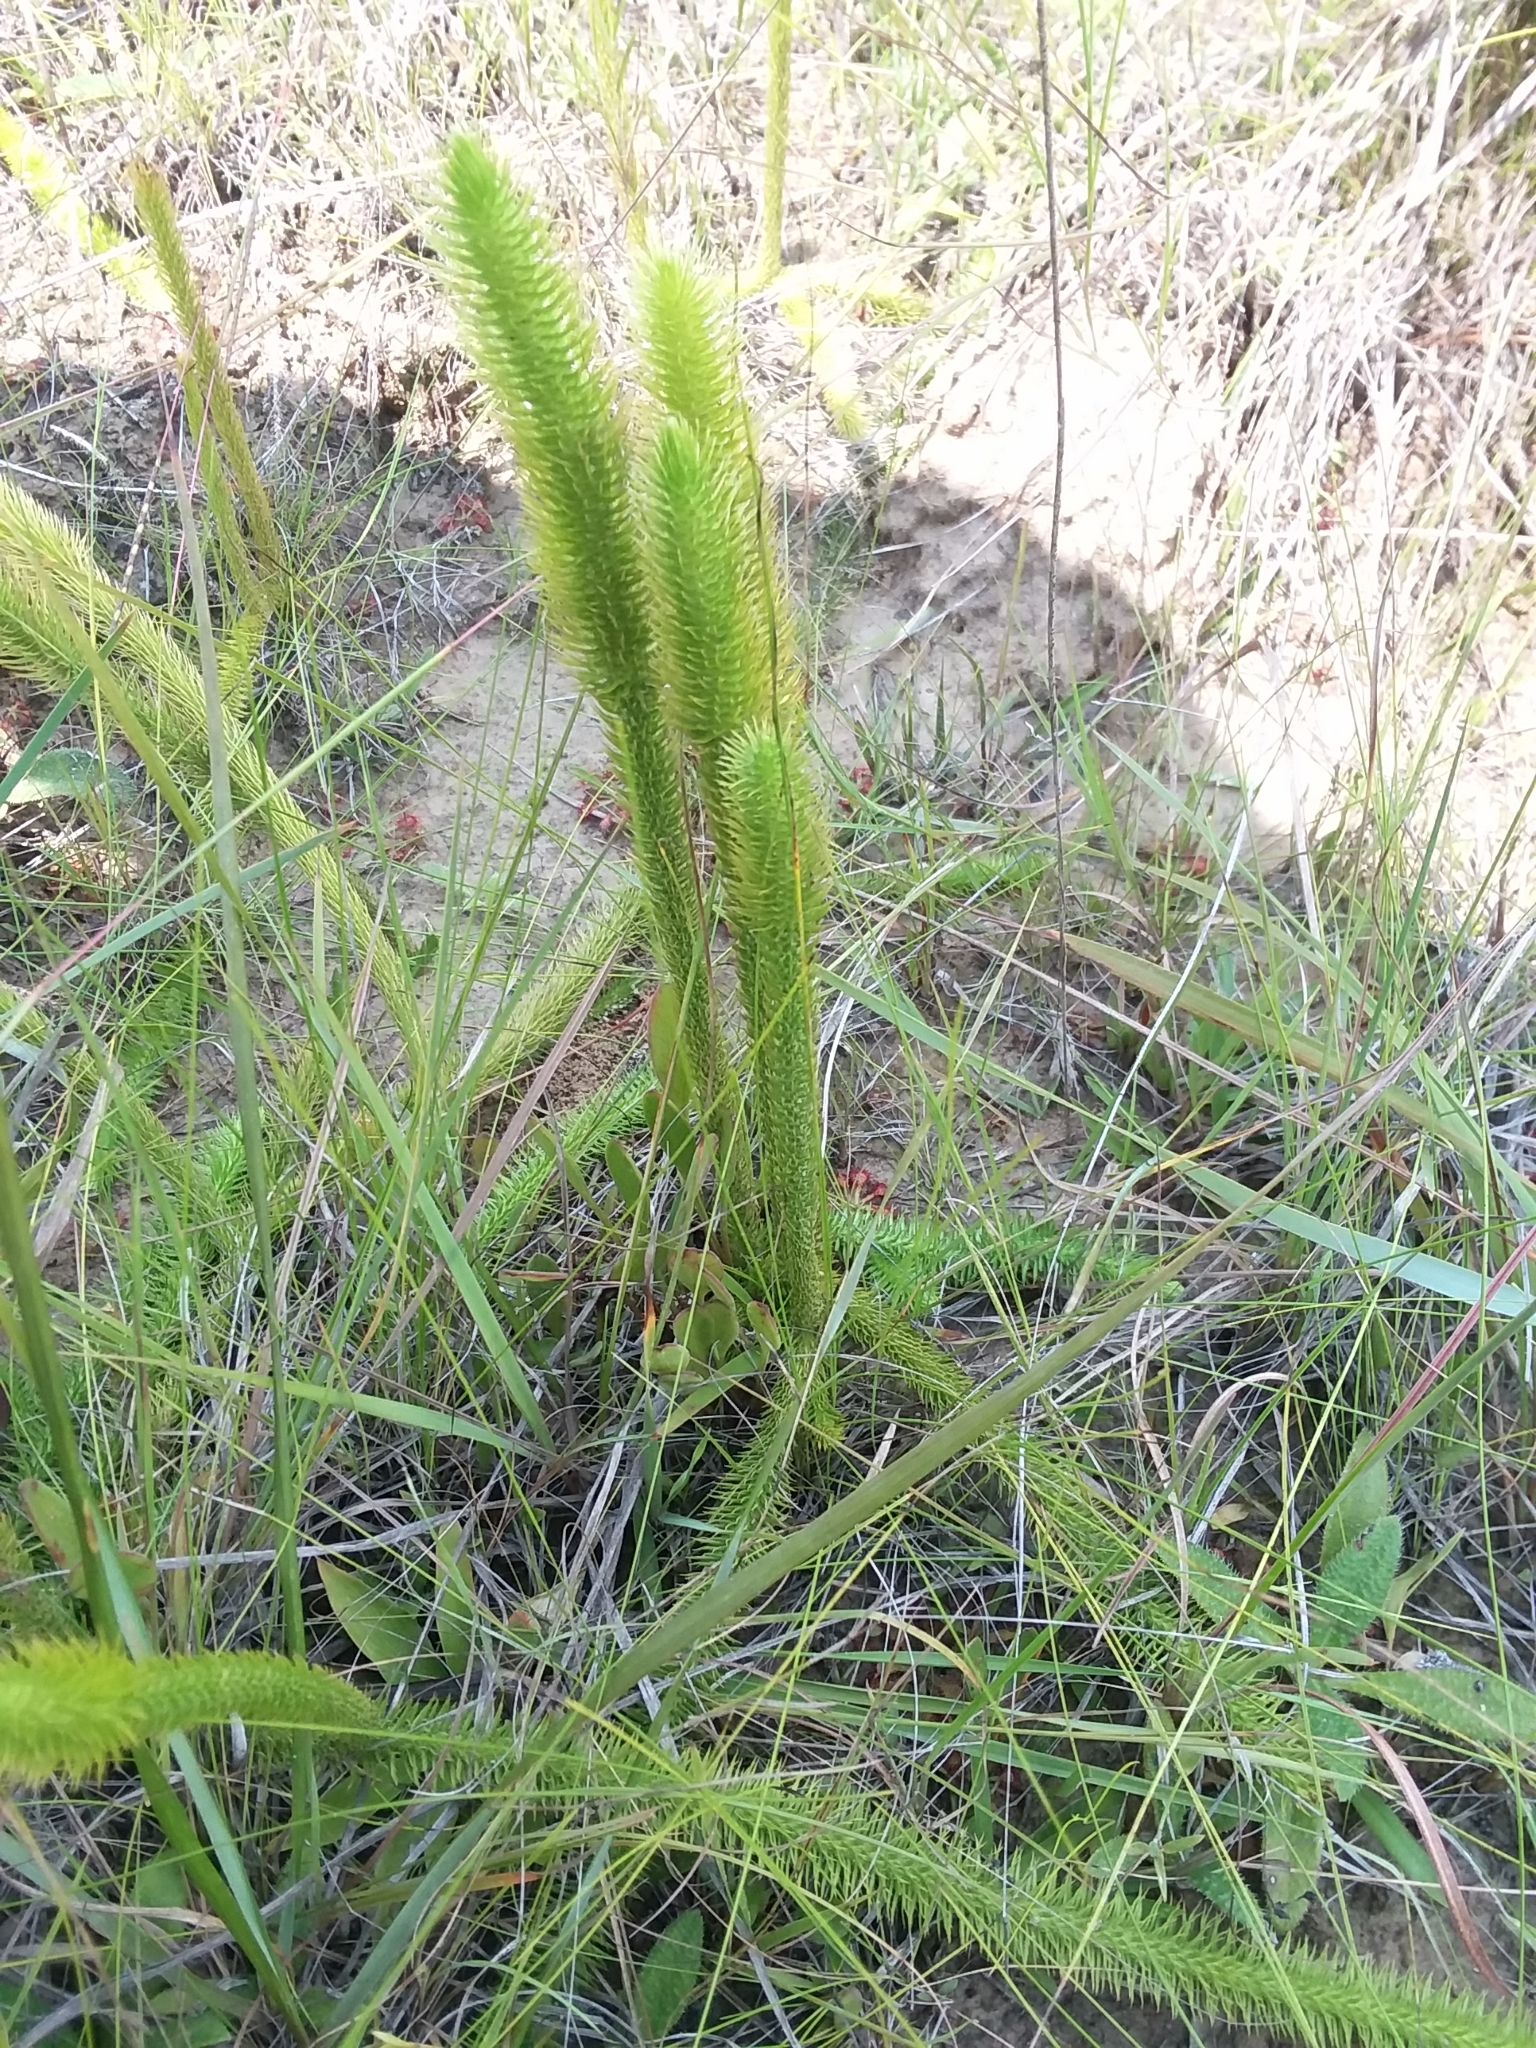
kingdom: Plantae
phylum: Tracheophyta
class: Lycopodiopsida
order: Lycopodiales
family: Lycopodiaceae
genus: Lycopodiella
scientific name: Lycopodiella prostrata
